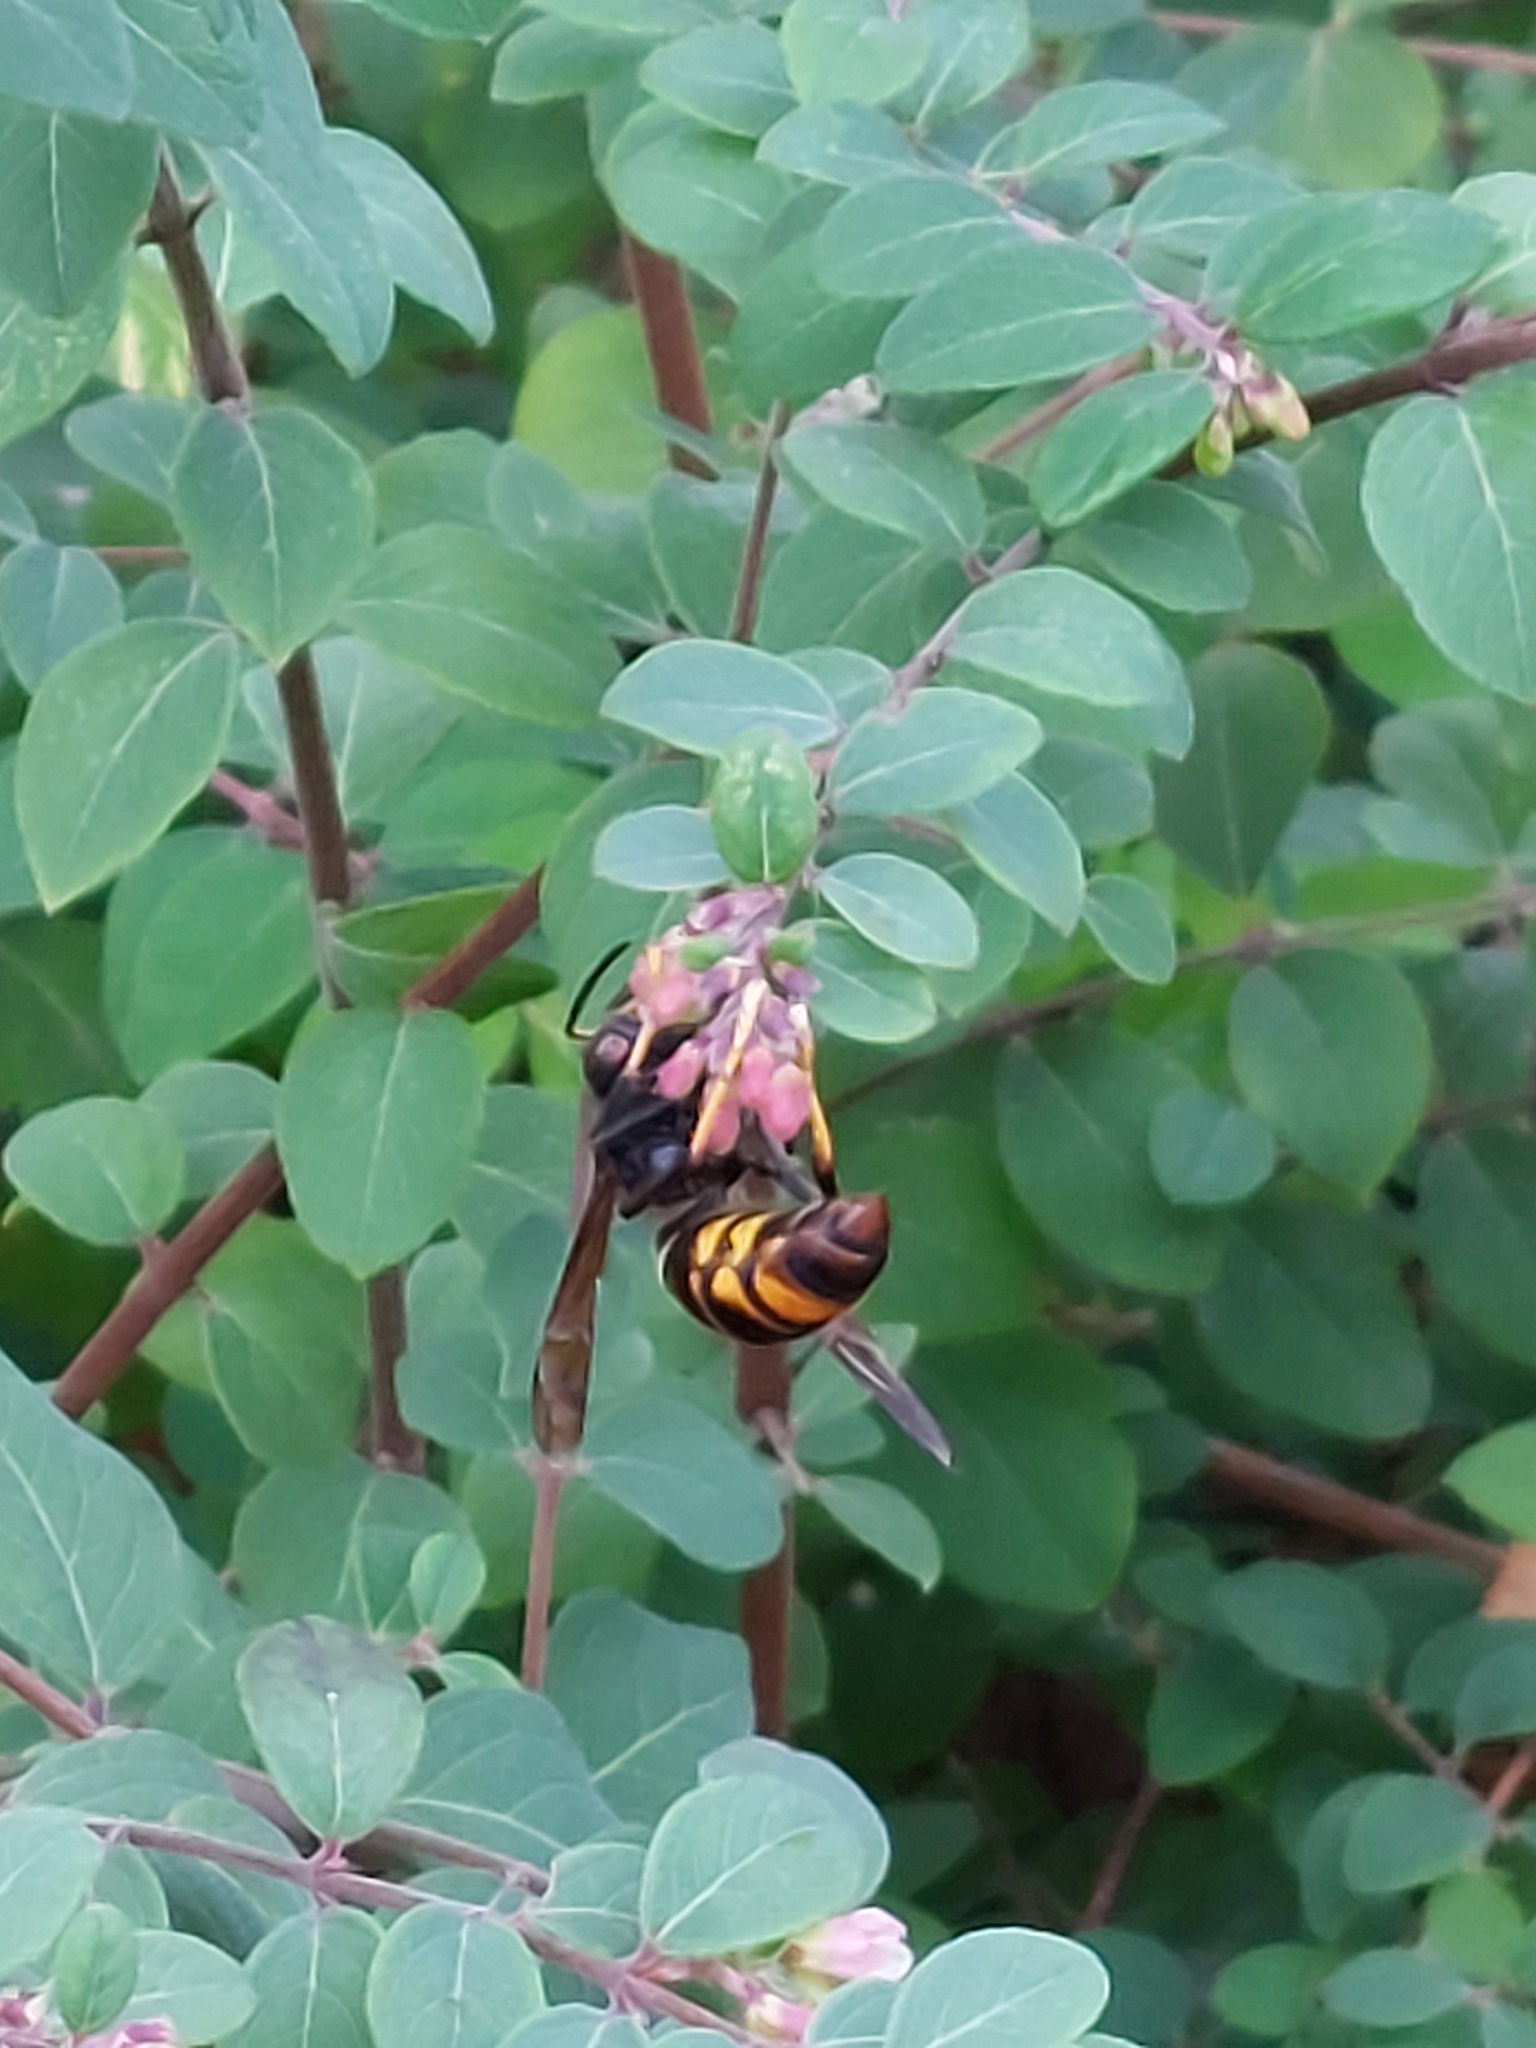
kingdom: Animalia
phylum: Arthropoda
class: Insecta
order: Hymenoptera
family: Vespidae
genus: Vespa
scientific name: Vespa velutina
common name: Asian hornet
